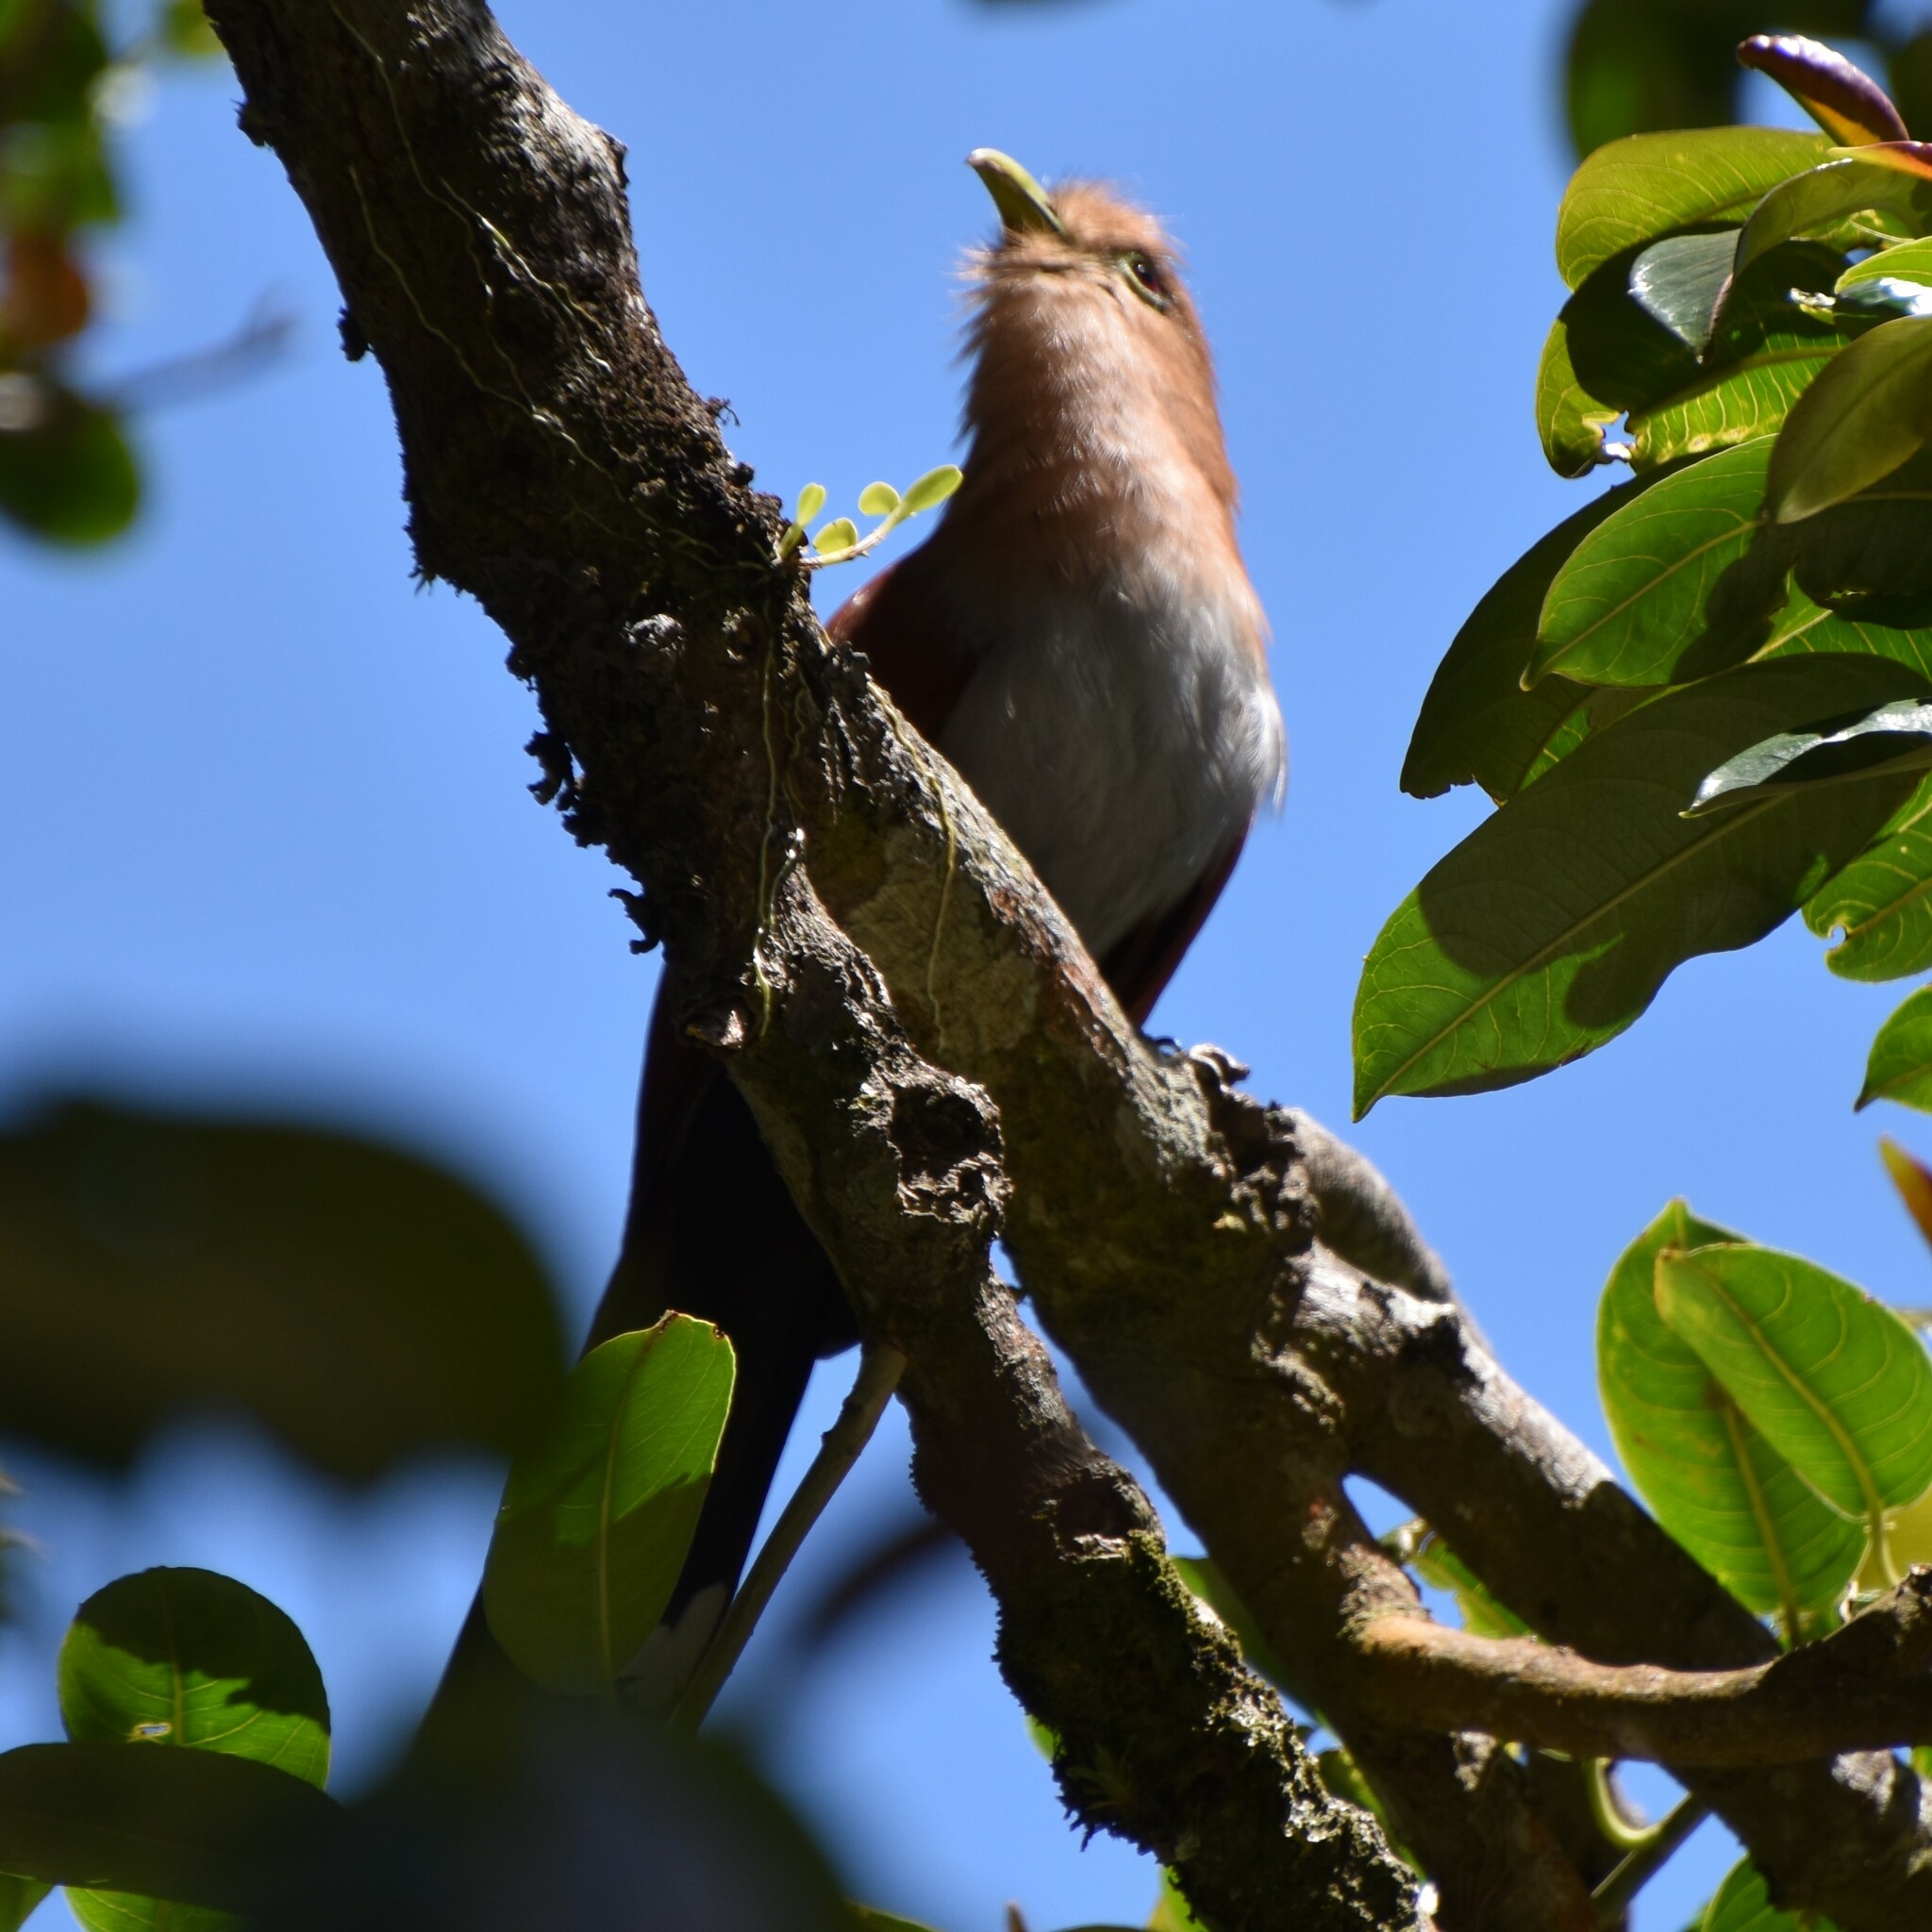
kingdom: Animalia
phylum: Chordata
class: Aves
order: Cuculiformes
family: Cuculidae
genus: Piaya
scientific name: Piaya cayana
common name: Squirrel cuckoo
